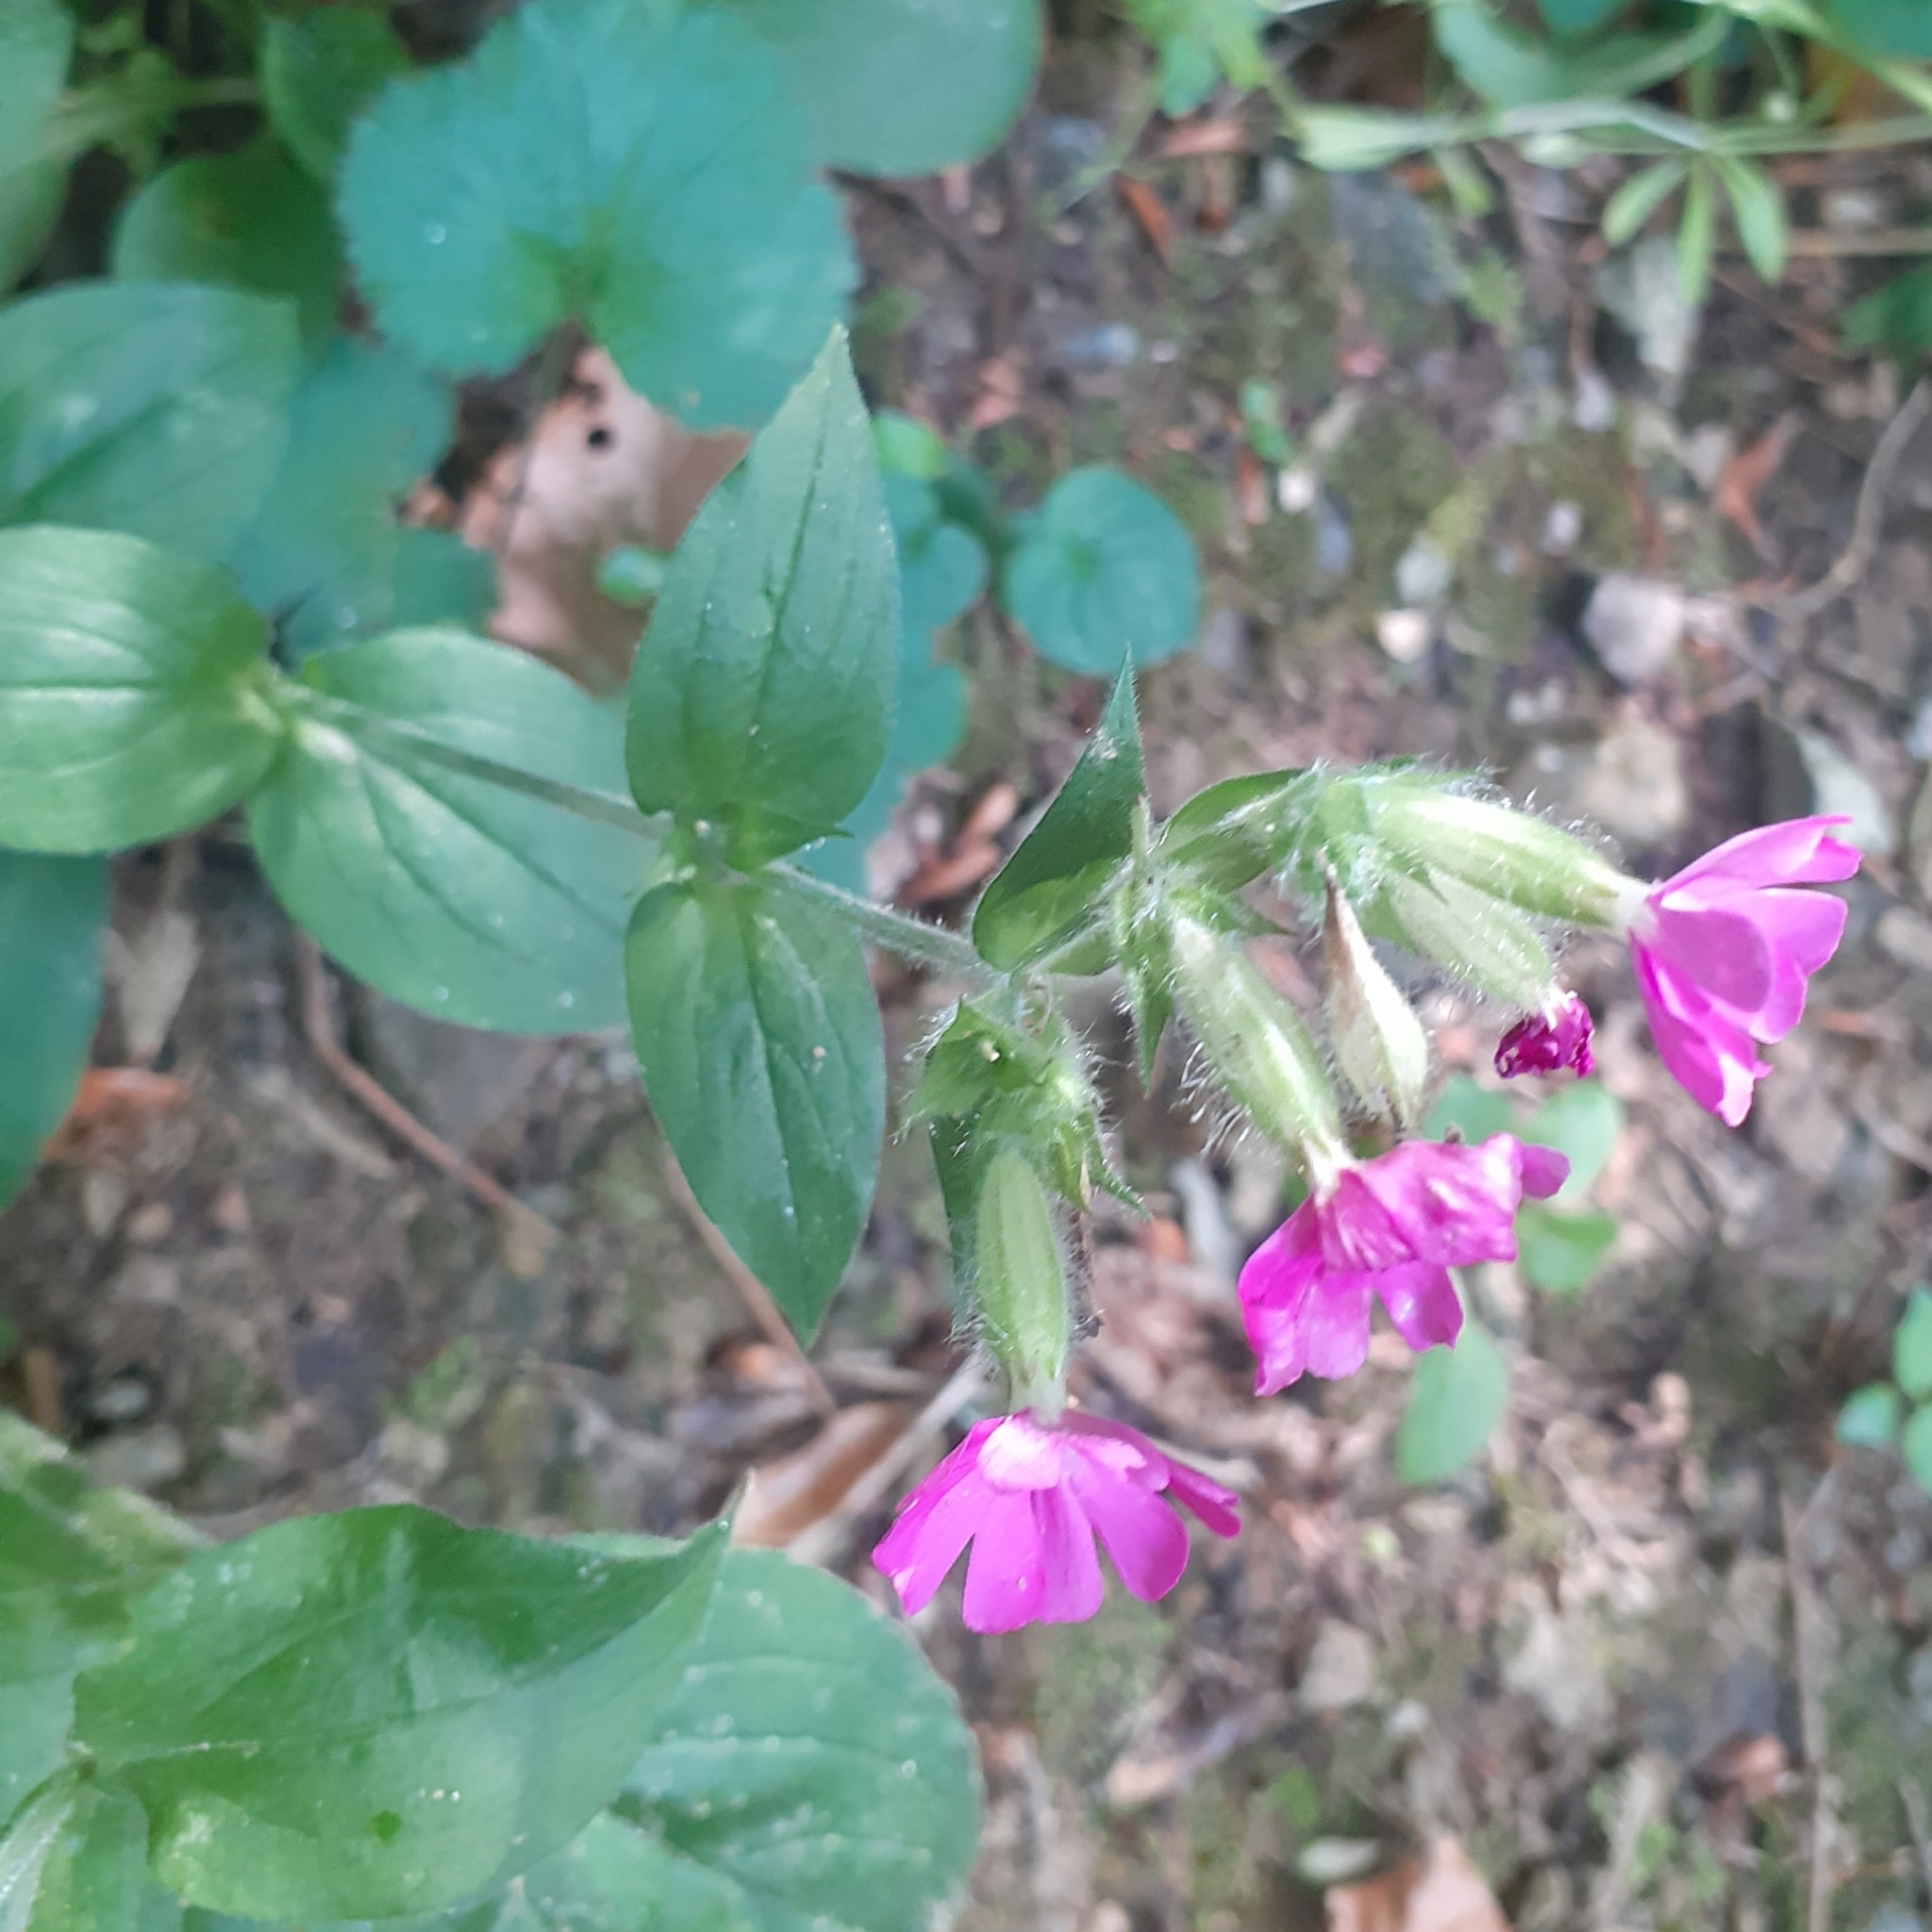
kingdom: Plantae
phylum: Tracheophyta
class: Magnoliopsida
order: Caryophyllales
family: Caryophyllaceae
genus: Silene
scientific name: Silene dioica
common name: Red campion
